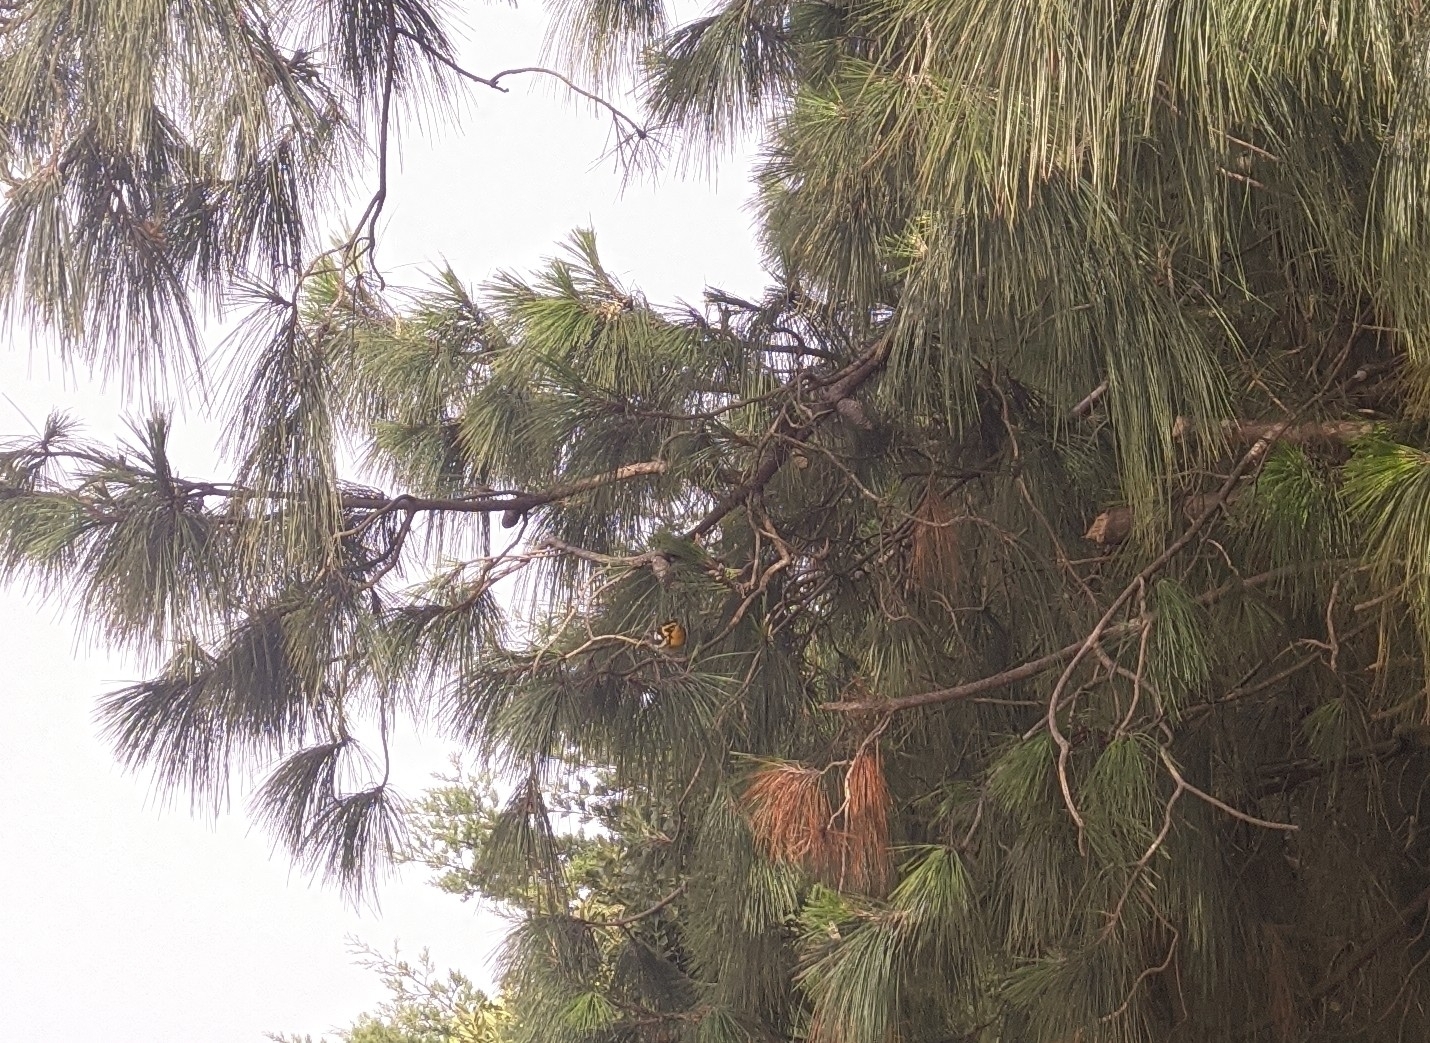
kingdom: Animalia
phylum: Chordata
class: Aves
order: Passeriformes
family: Parulidae
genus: Setophaga
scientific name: Setophaga fusca
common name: Blackburnian warbler
